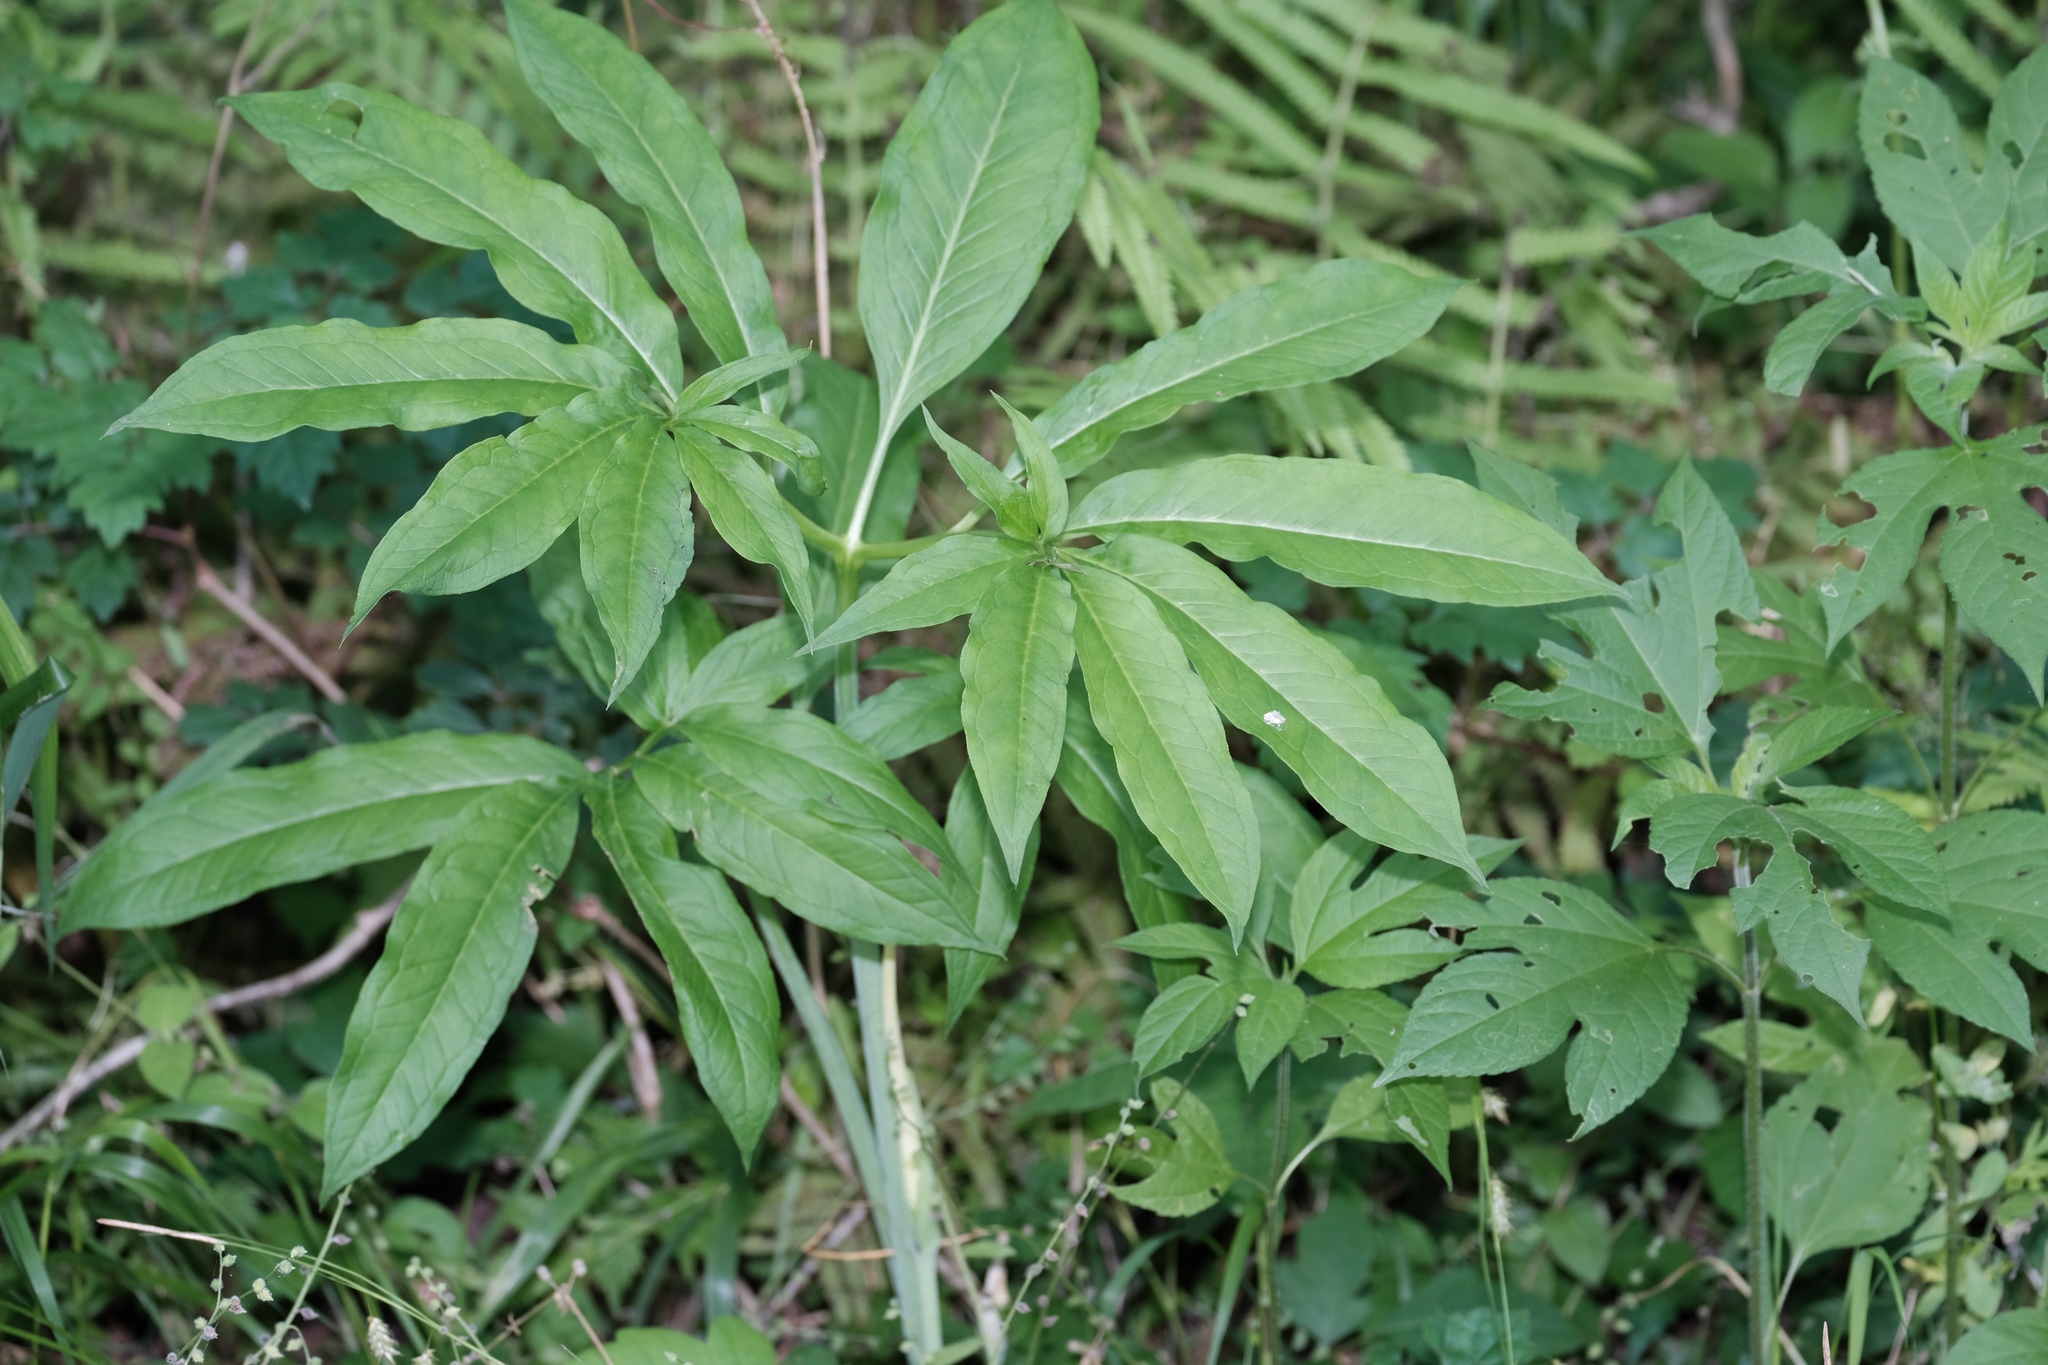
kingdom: Plantae
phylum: Tracheophyta
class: Liliopsida
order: Alismatales
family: Araceae
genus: Arisaema
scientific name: Arisaema dracontium
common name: Dragon-arum
